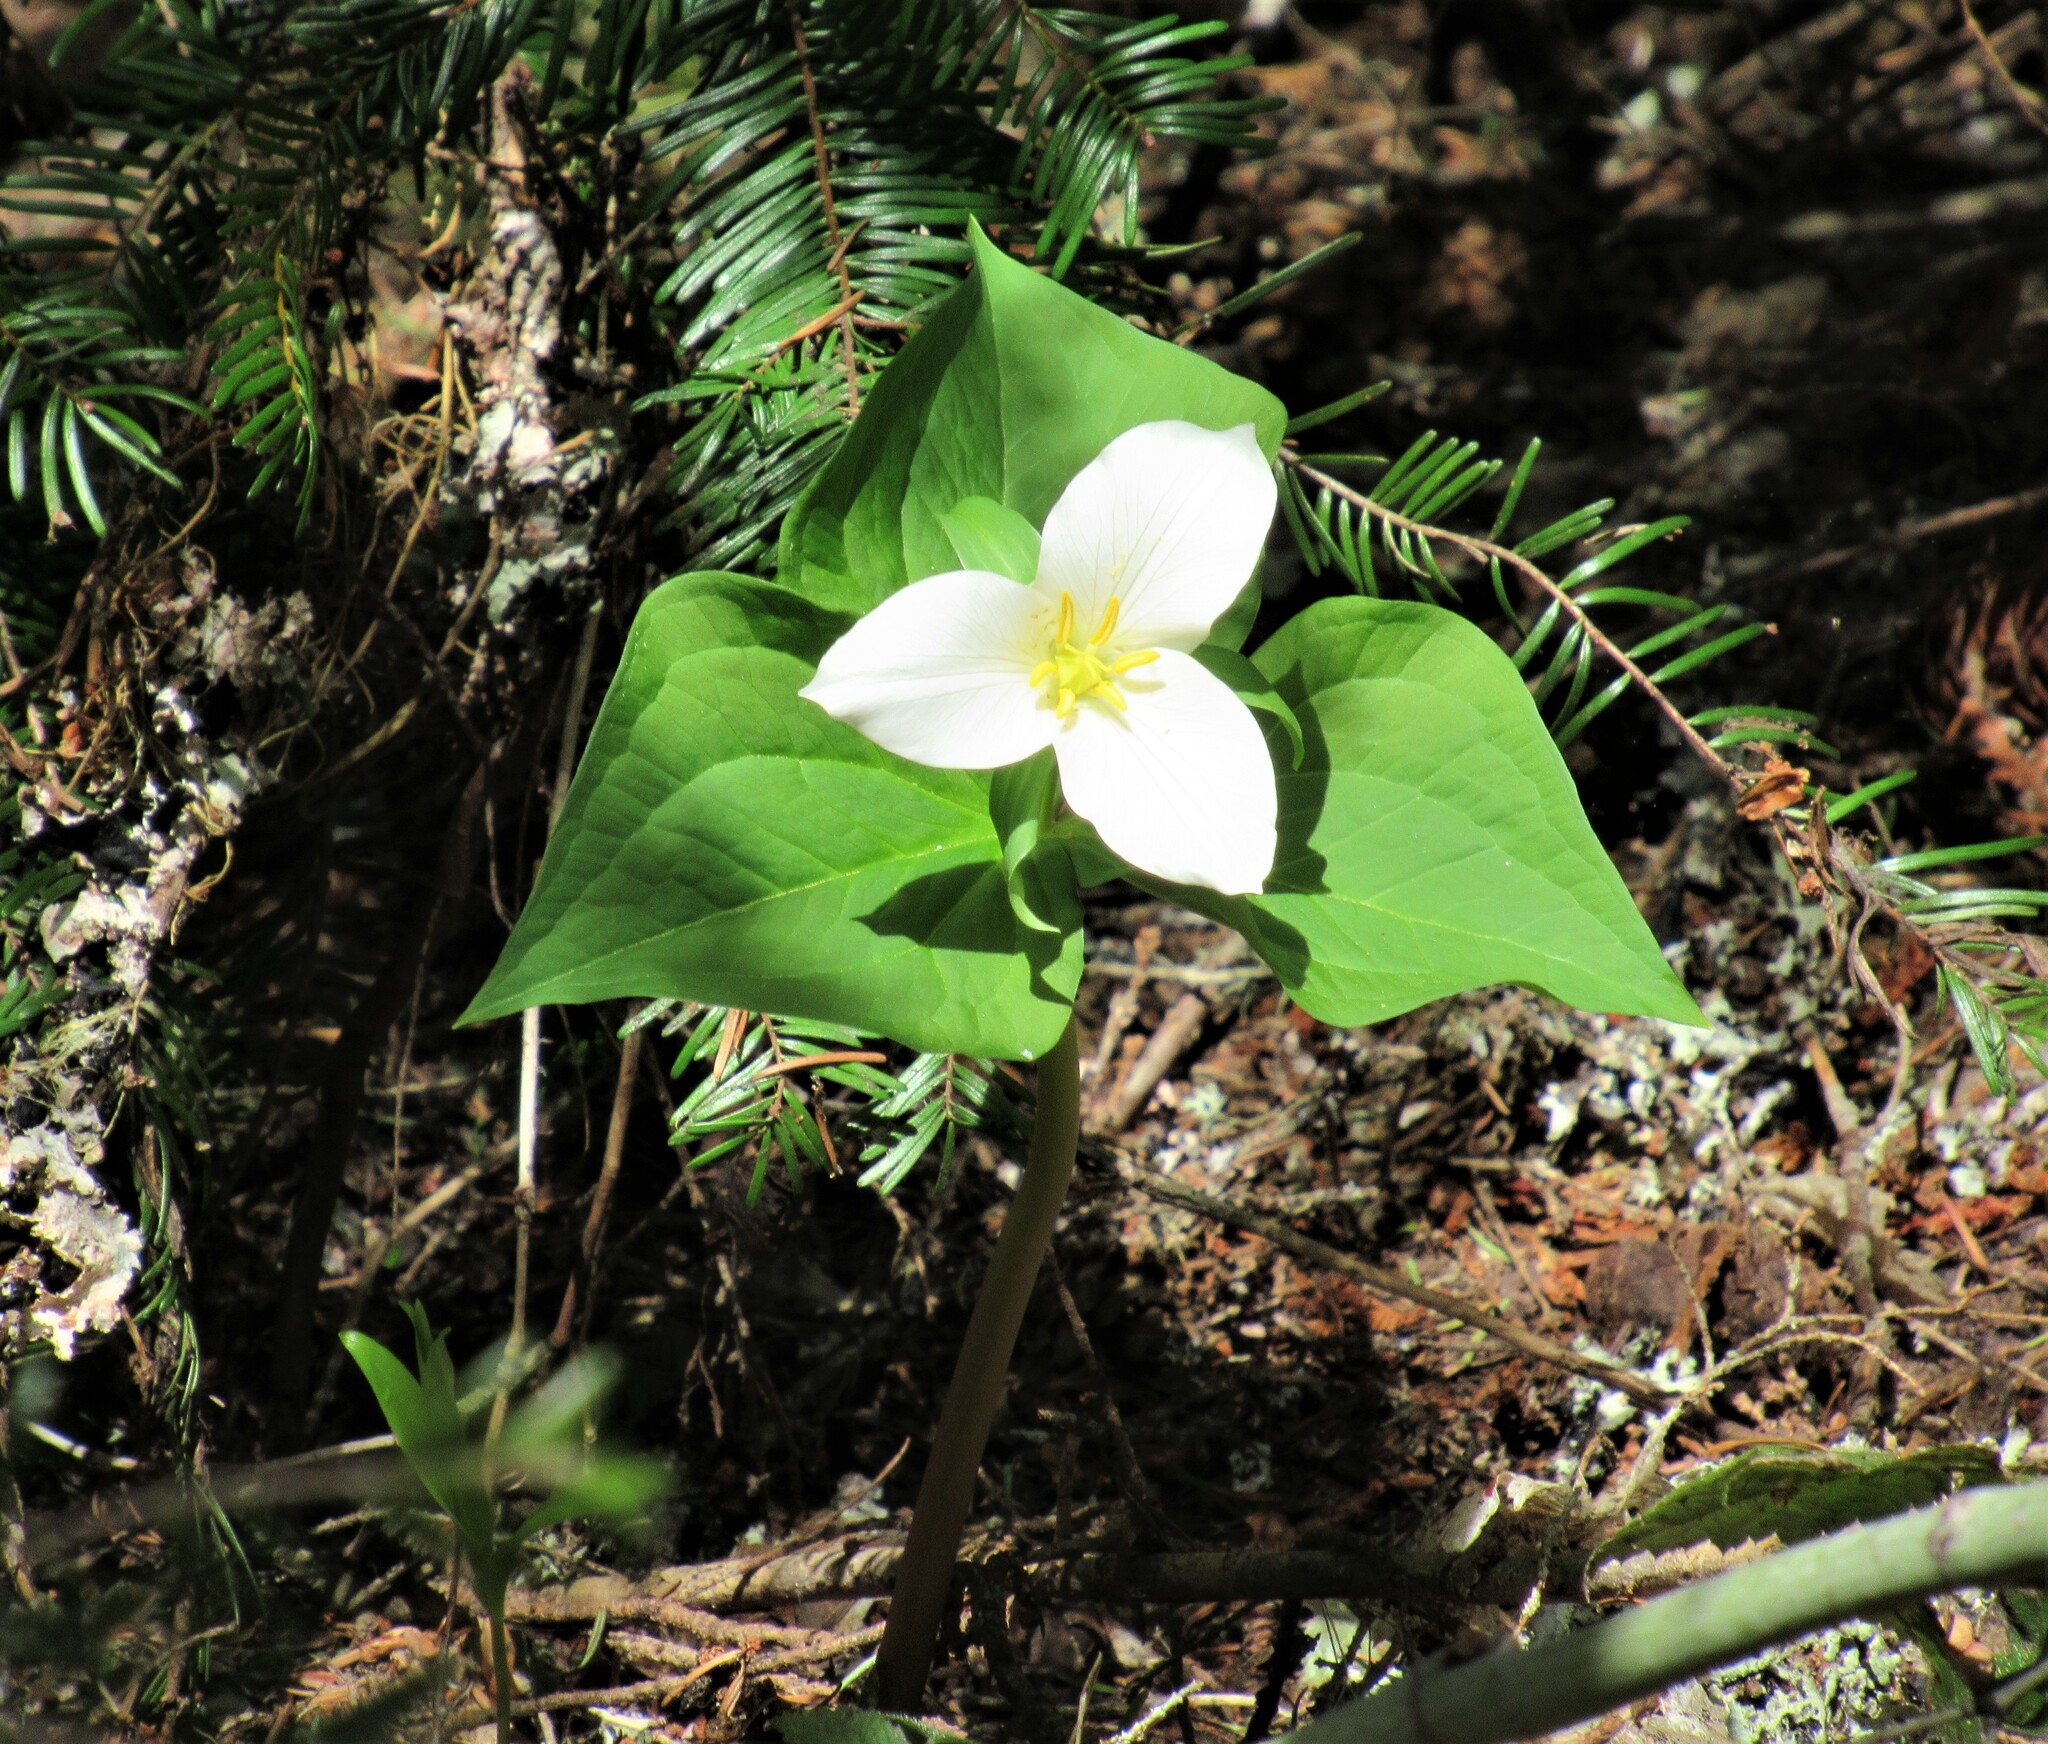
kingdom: Plantae
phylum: Tracheophyta
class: Liliopsida
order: Liliales
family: Melanthiaceae
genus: Trillium
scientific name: Trillium ovatum
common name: Pacific trillium
